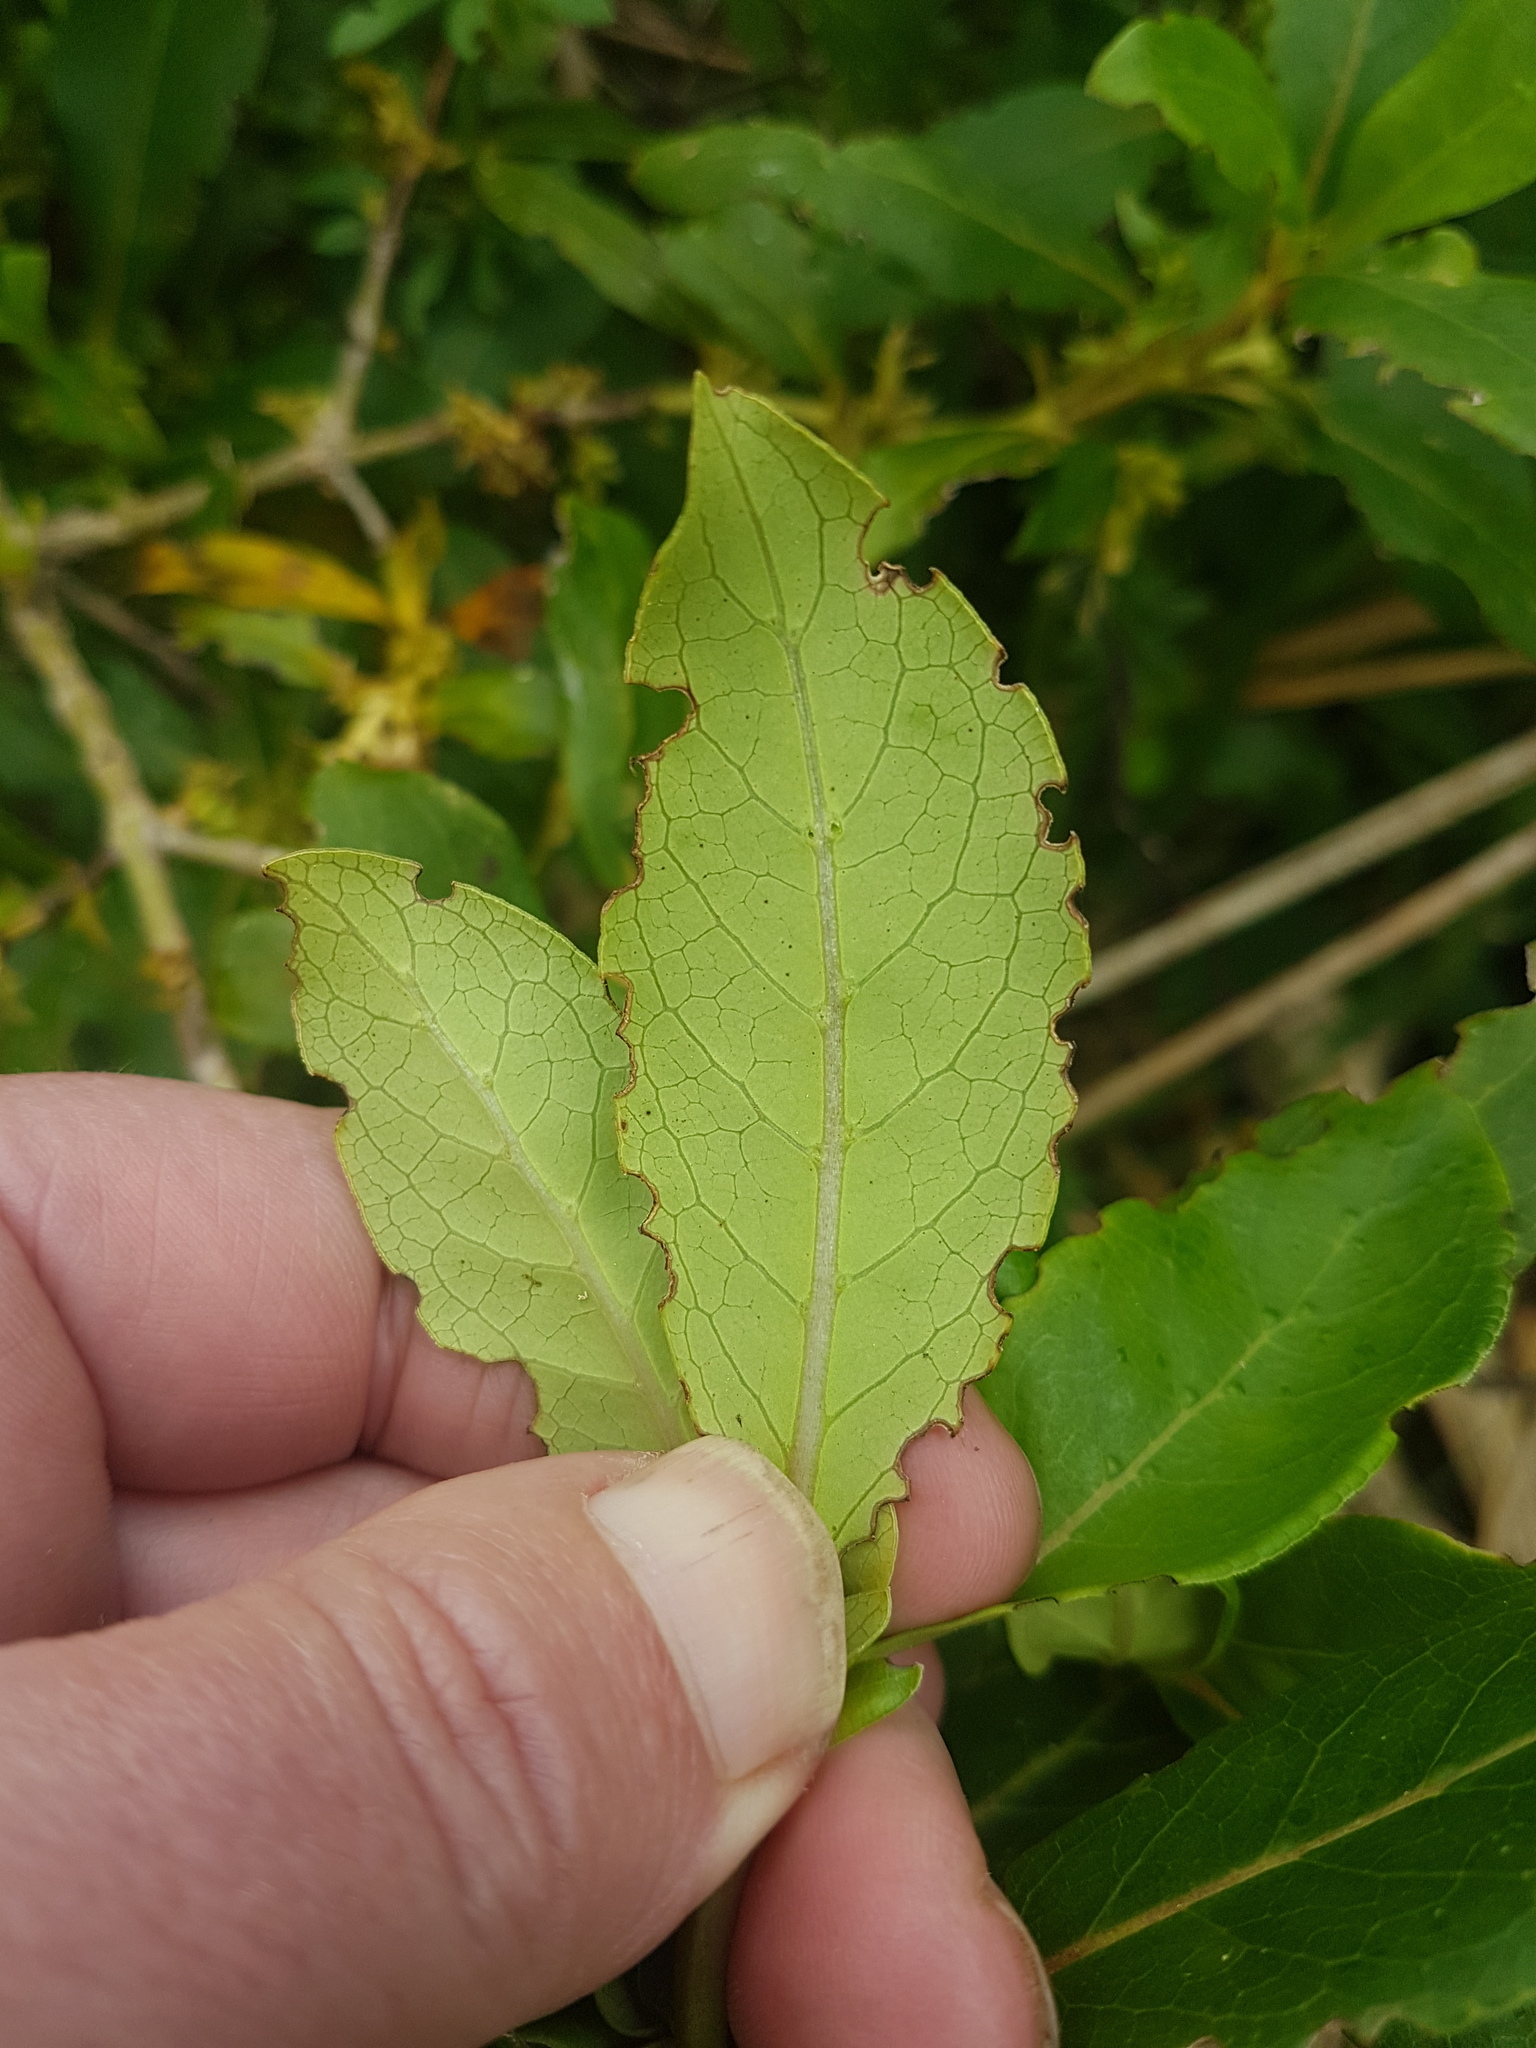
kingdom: Plantae
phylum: Tracheophyta
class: Magnoliopsida
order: Gentianales
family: Rubiaceae
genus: Coprosma
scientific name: Coprosma robusta
